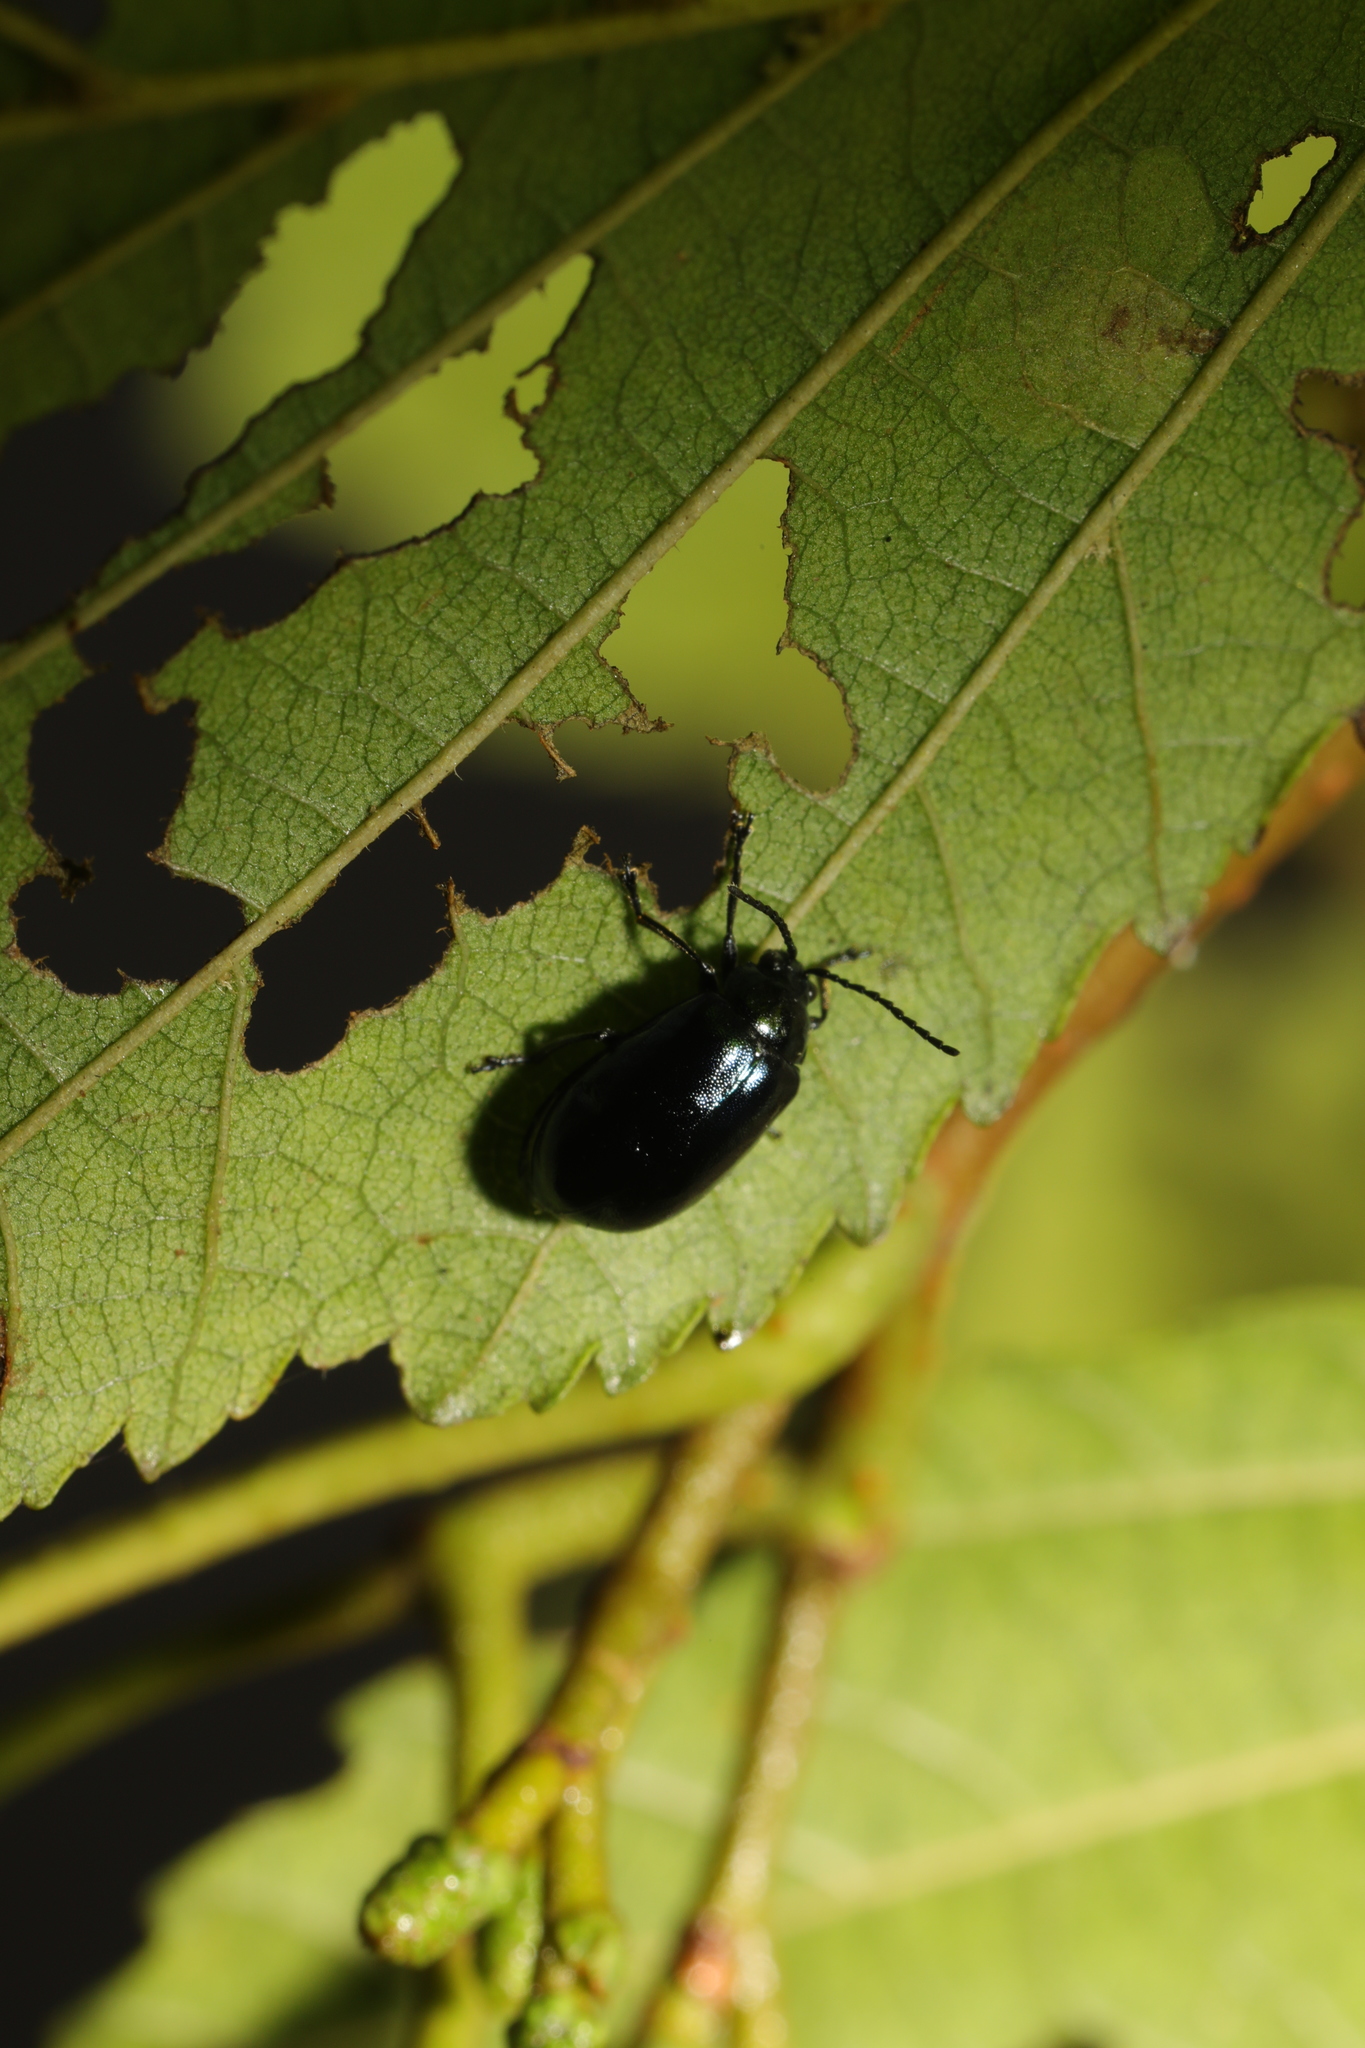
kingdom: Animalia
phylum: Arthropoda
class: Insecta
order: Coleoptera
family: Chrysomelidae
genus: Agelastica
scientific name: Agelastica alni
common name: Alder leaf beetle
